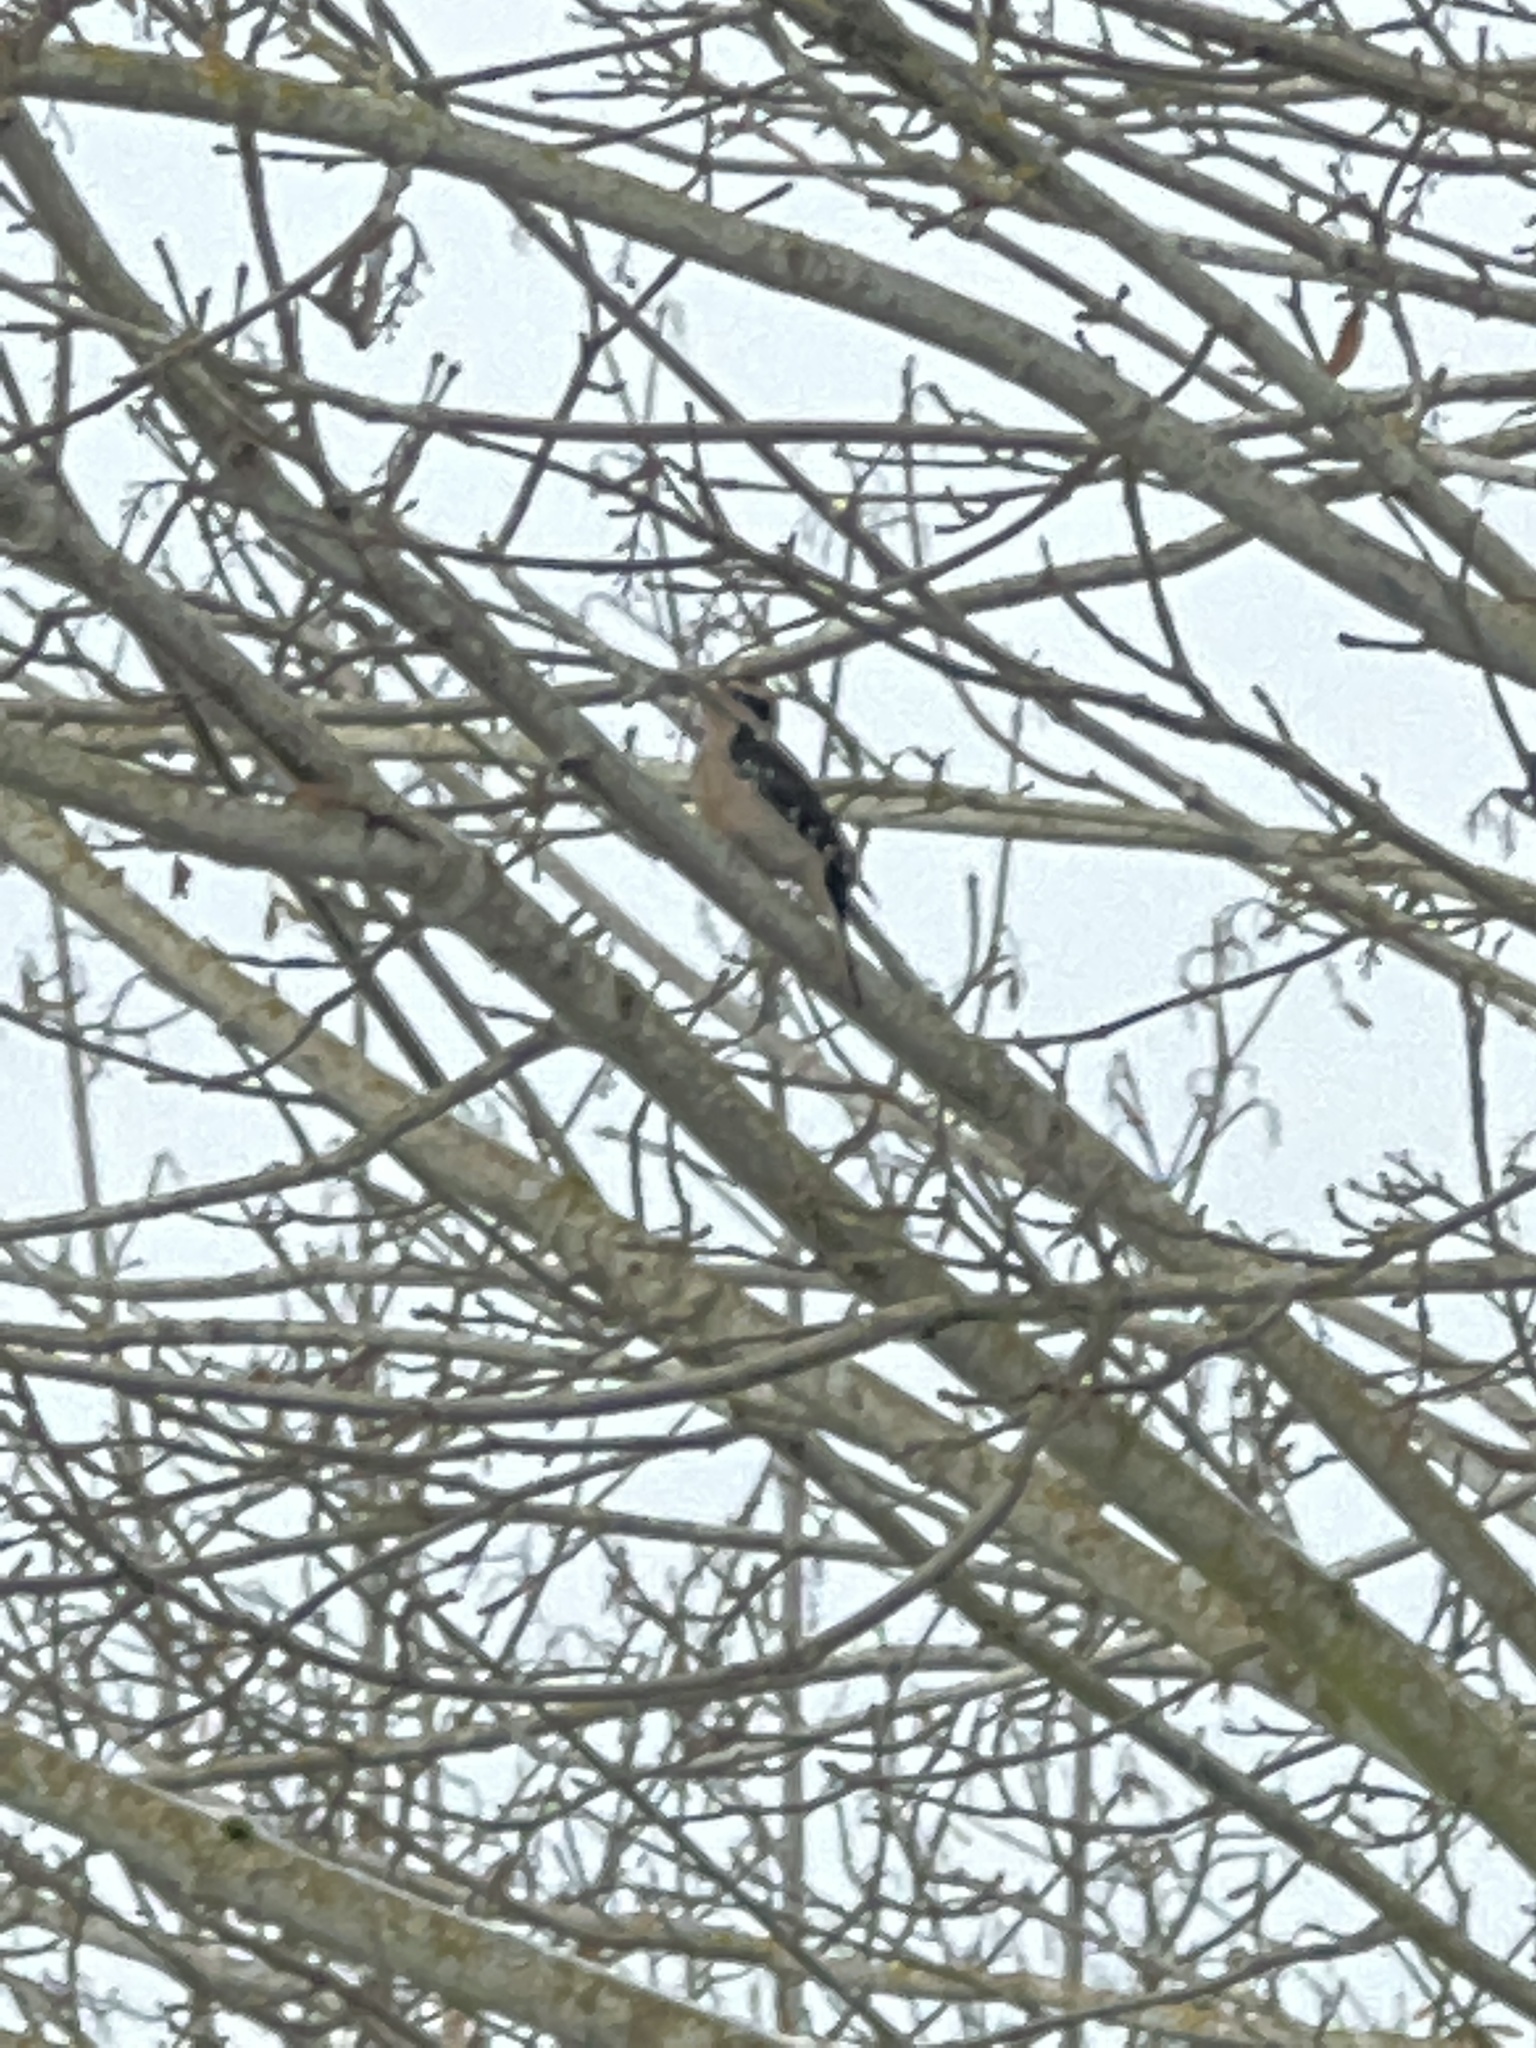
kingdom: Animalia
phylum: Chordata
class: Aves
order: Piciformes
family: Picidae
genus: Leuconotopicus
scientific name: Leuconotopicus villosus
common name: Hairy woodpecker
